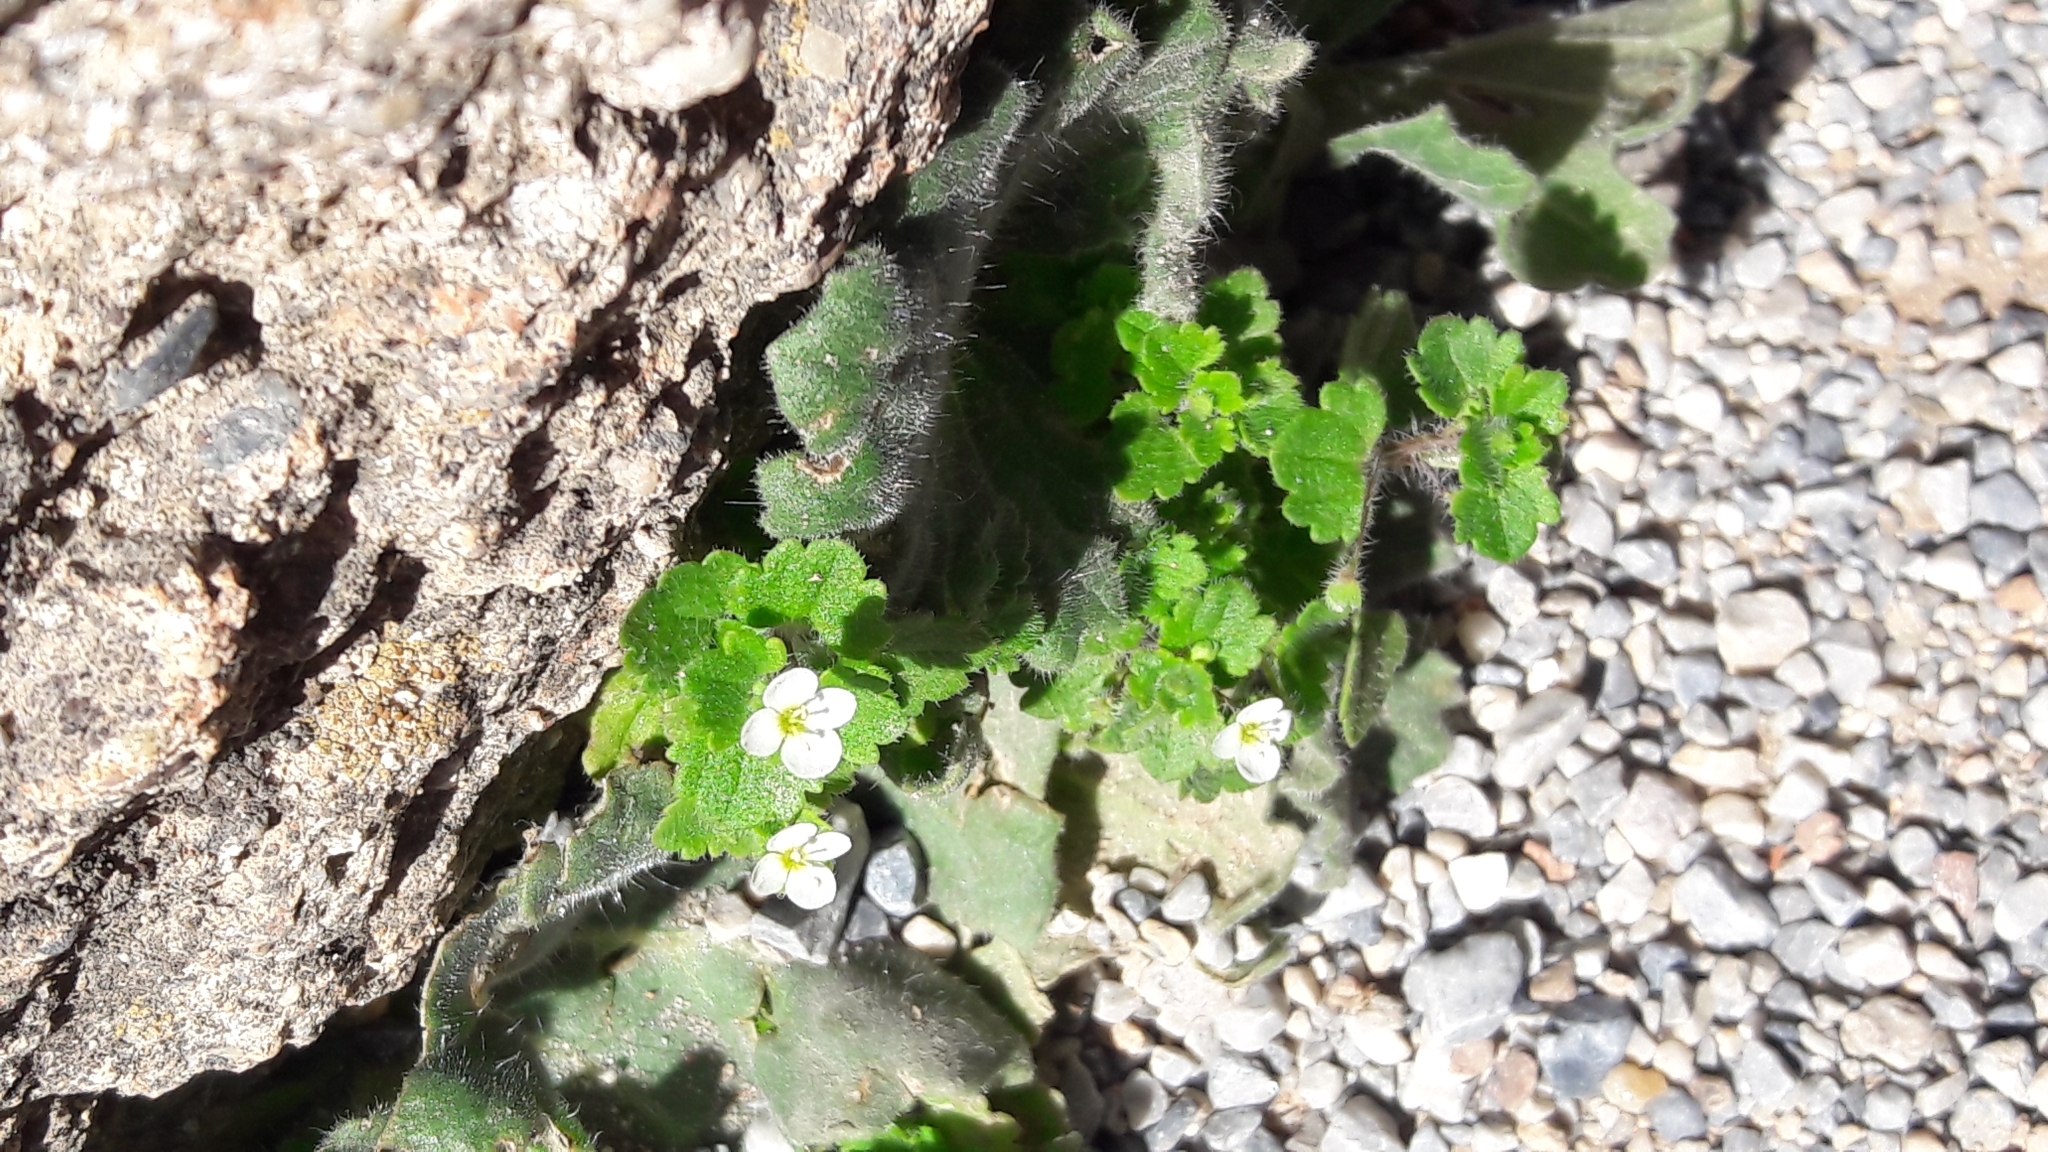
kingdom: Plantae
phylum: Tracheophyta
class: Magnoliopsida
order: Lamiales
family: Plantaginaceae
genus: Veronica
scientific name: Veronica cymbalaria
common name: Pale speedwell
